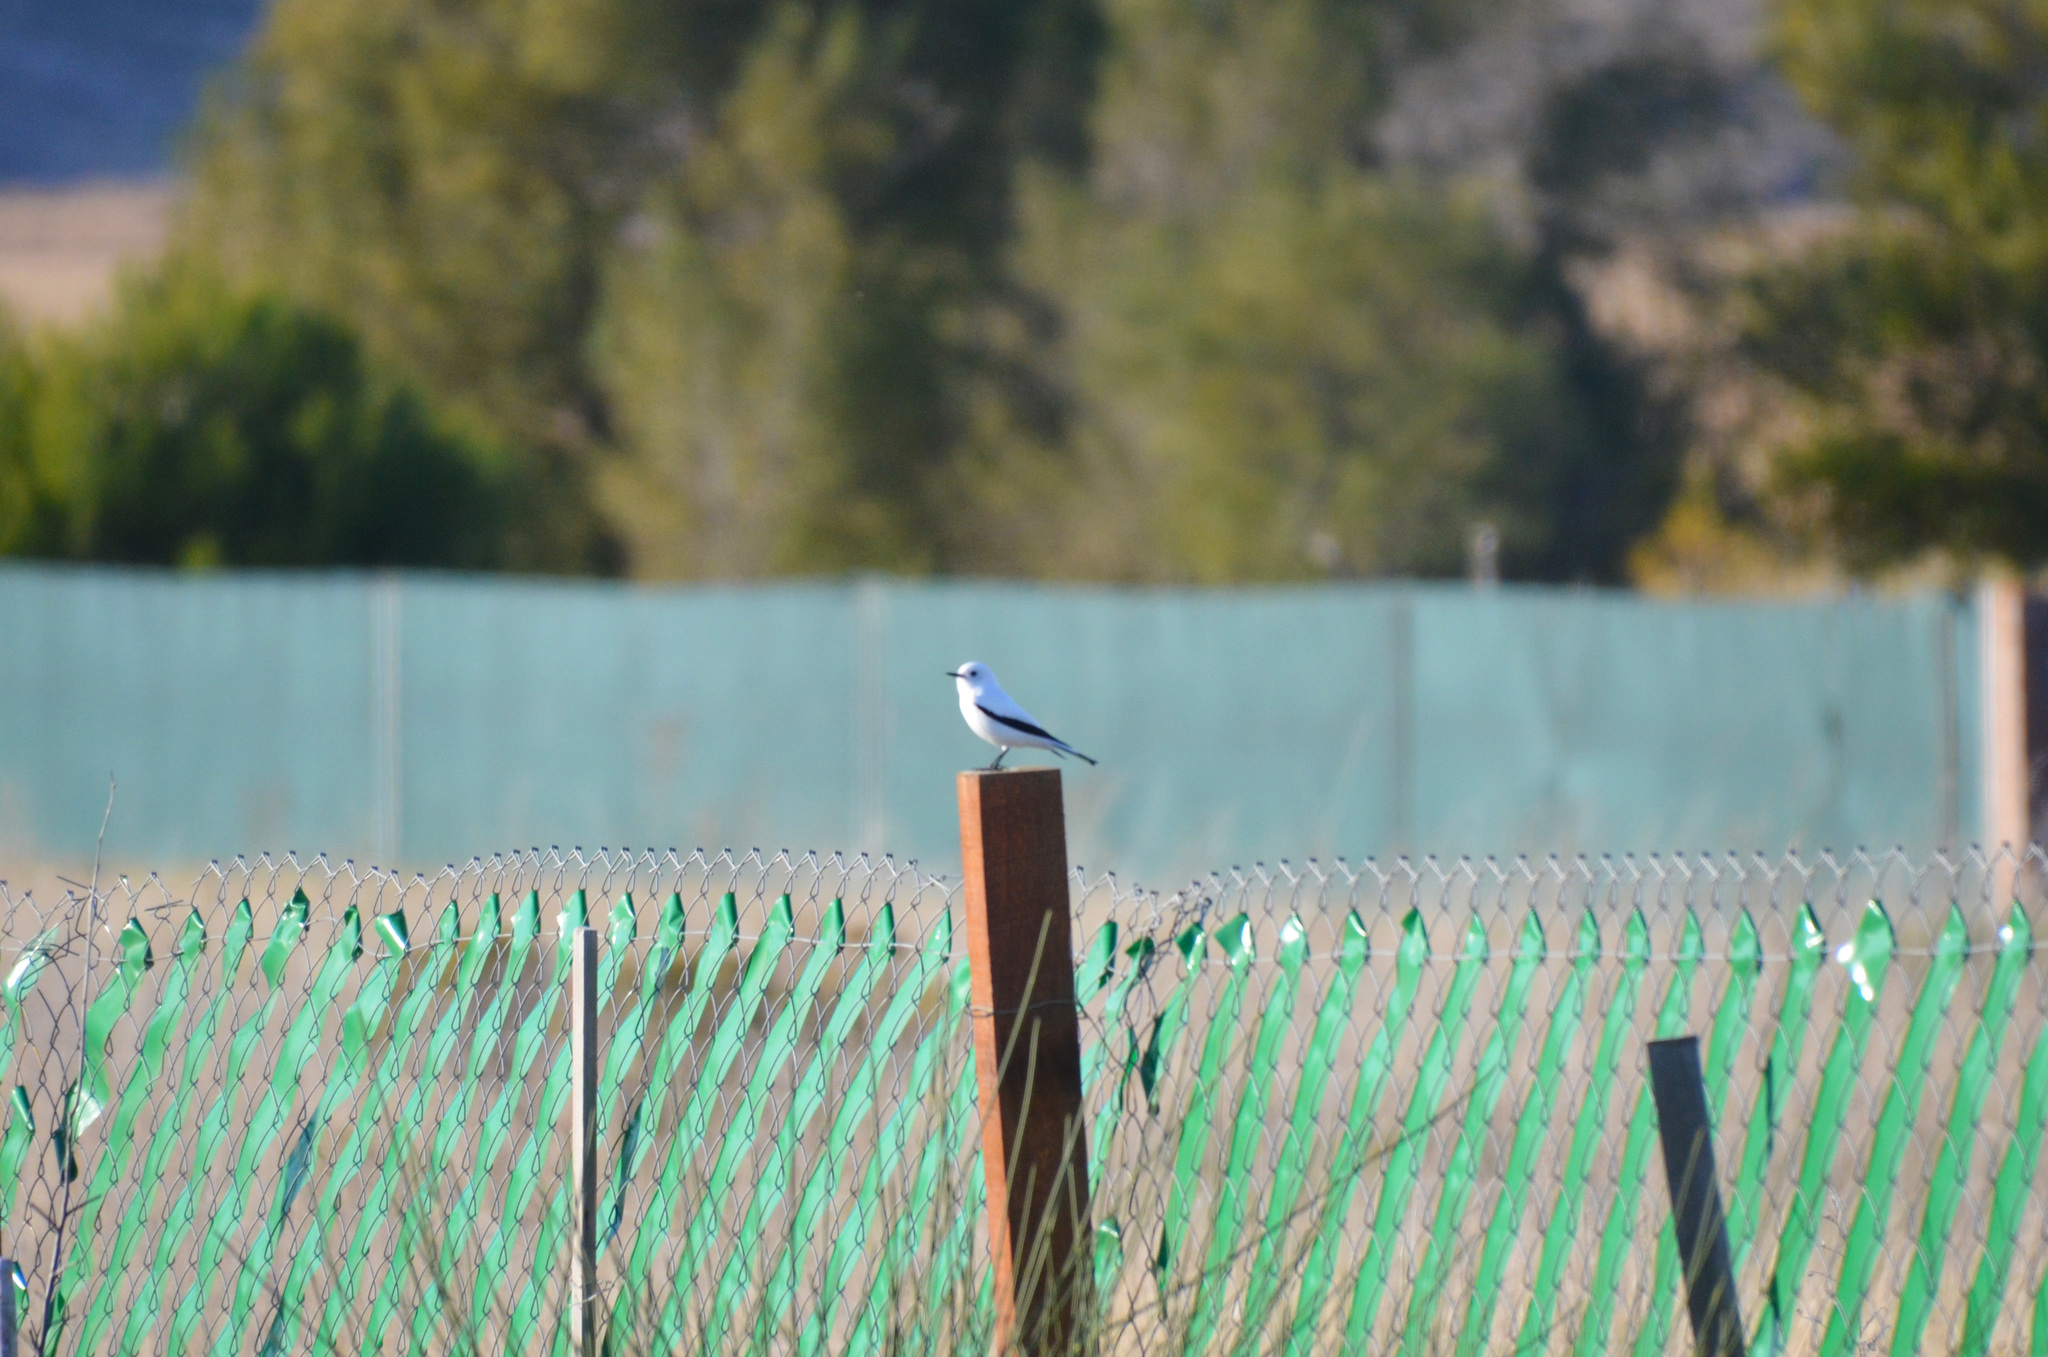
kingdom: Animalia
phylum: Chordata
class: Aves
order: Passeriformes
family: Tyrannidae
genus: Xolmis
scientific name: Xolmis irupero
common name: White monjita
